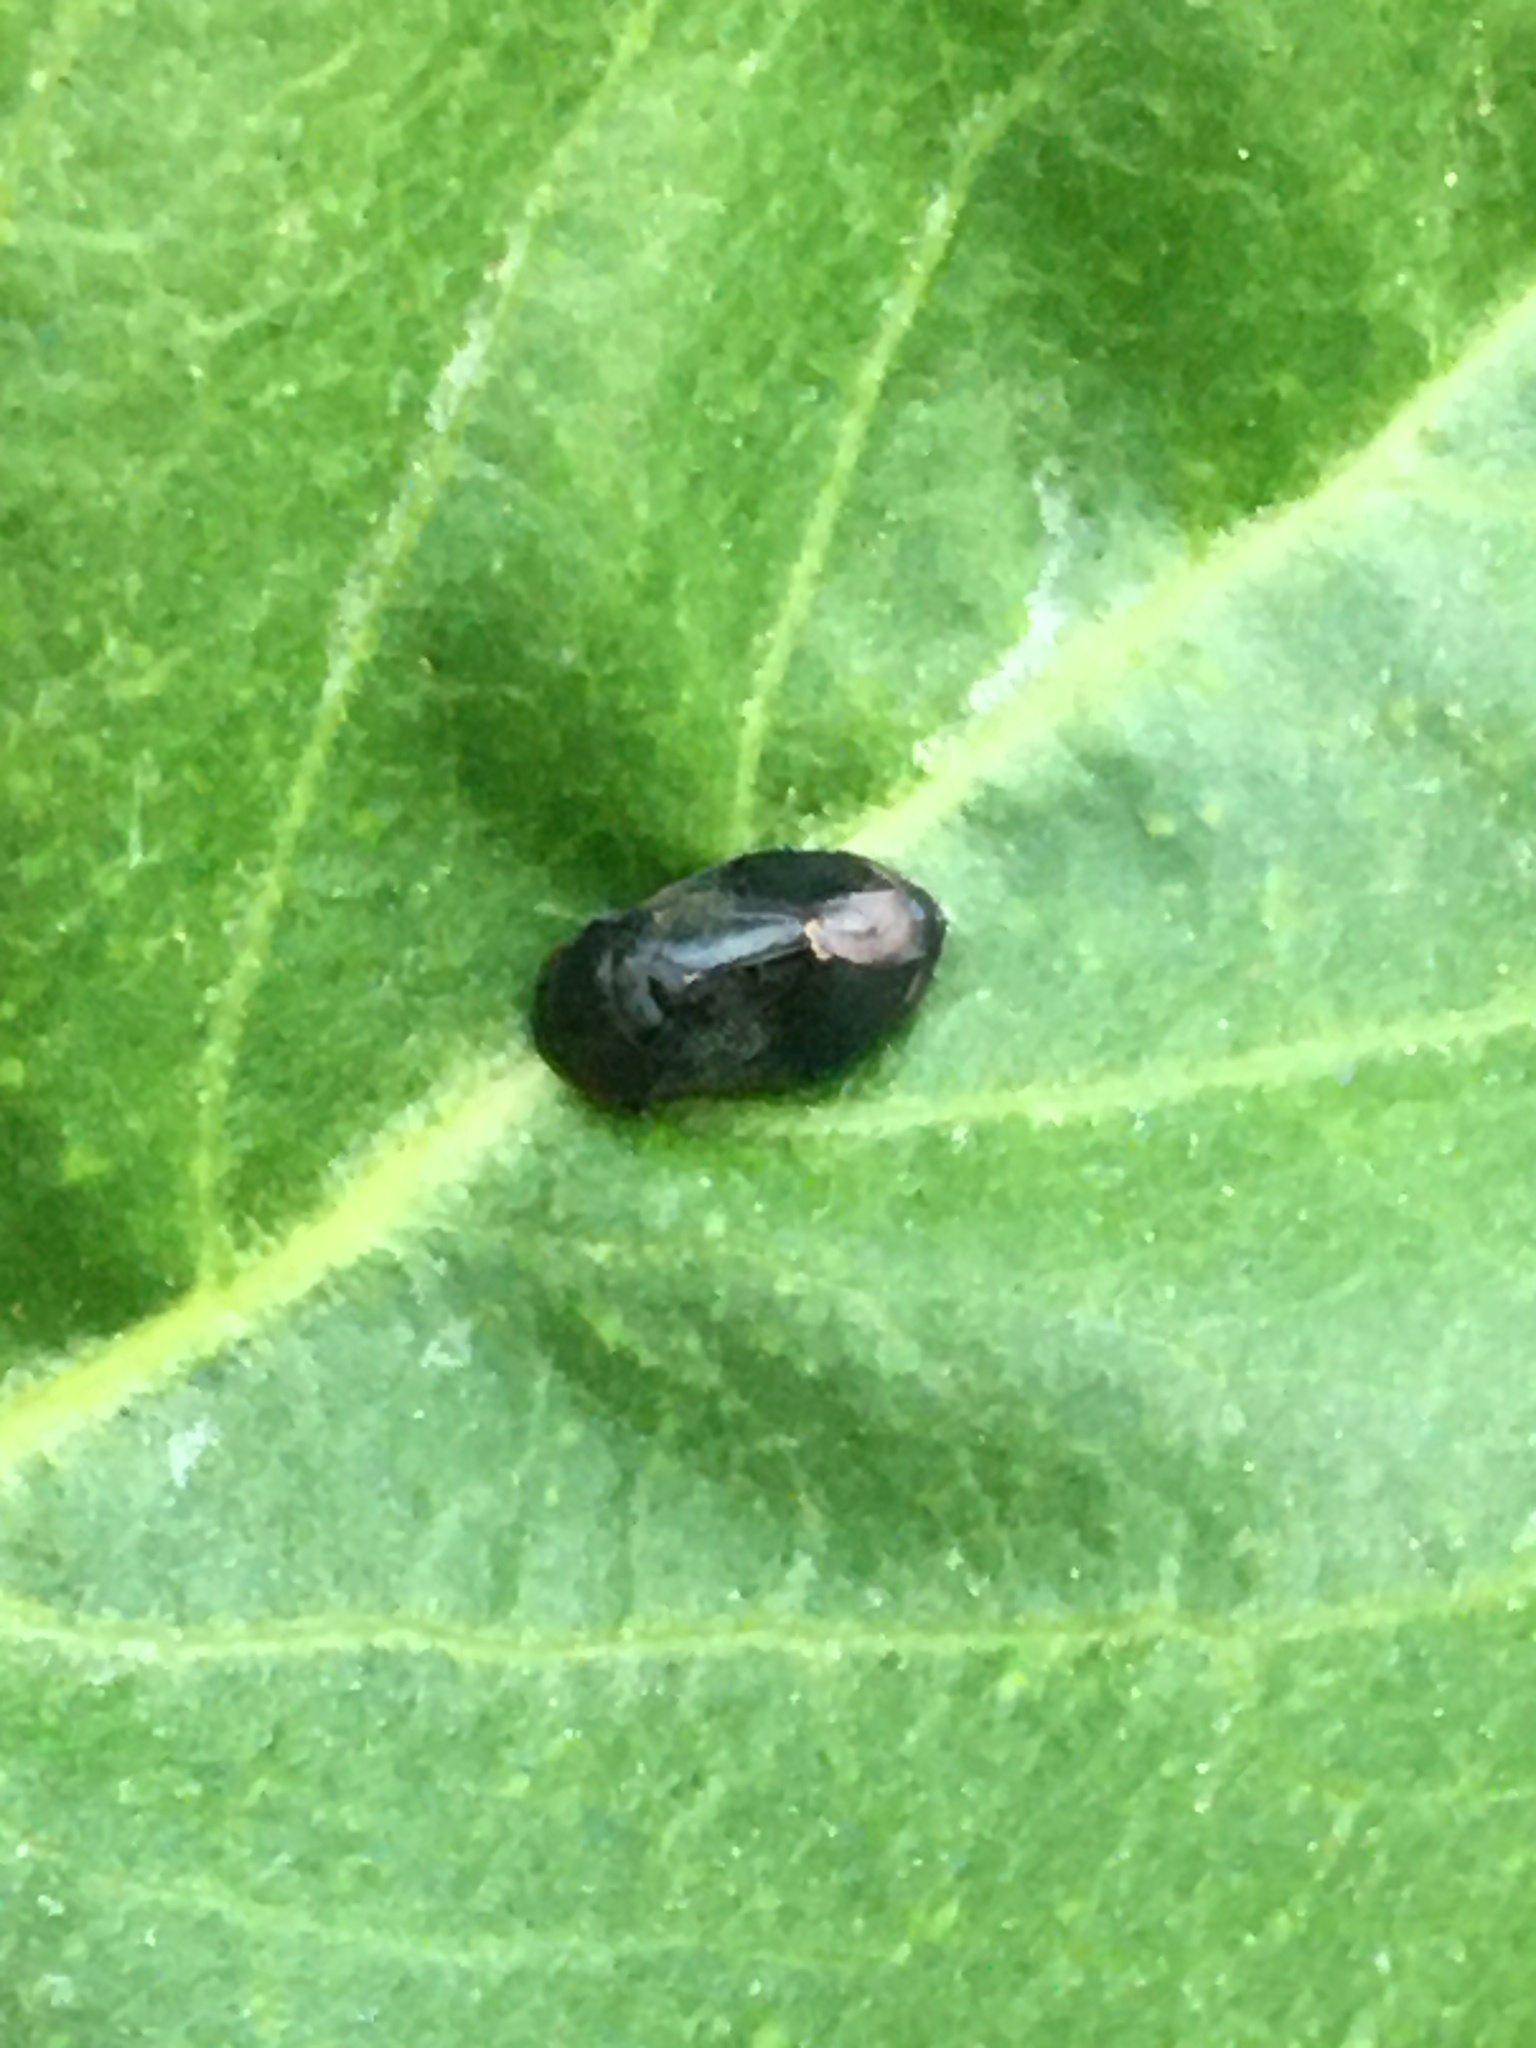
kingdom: Animalia
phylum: Arthropoda
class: Insecta
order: Hemiptera
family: Cicadellidae
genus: Penthimia
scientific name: Penthimia nigra
